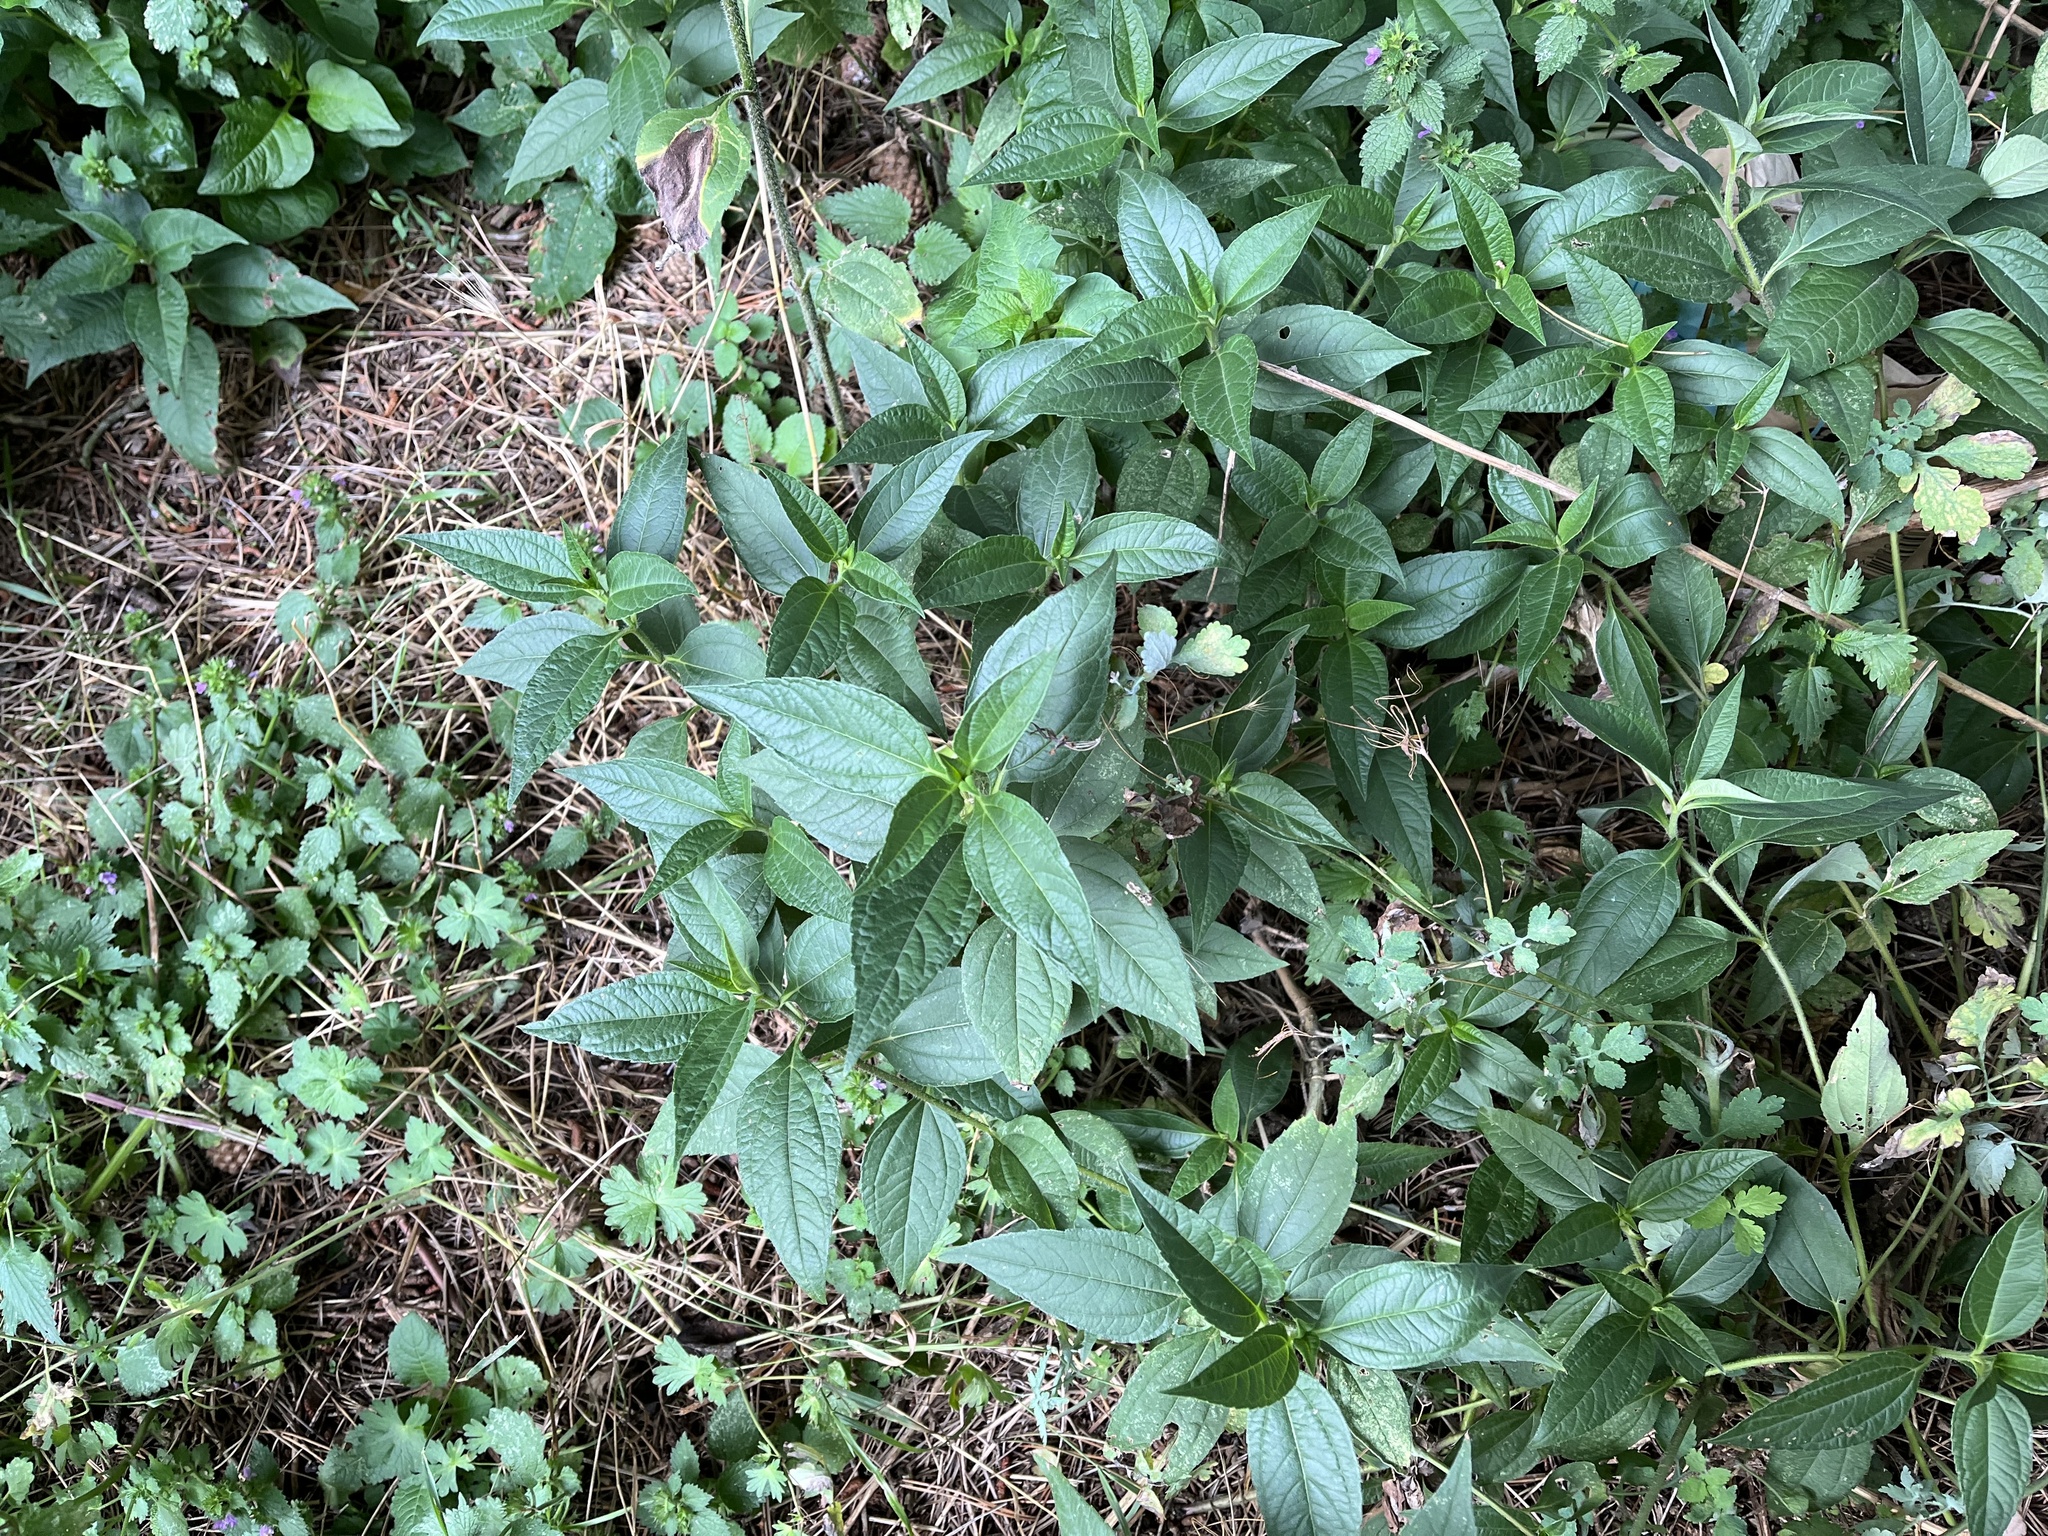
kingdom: Plantae
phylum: Tracheophyta
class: Magnoliopsida
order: Asterales
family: Asteraceae
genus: Helianthus
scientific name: Helianthus tuberosus
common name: Jerusalem artichoke
